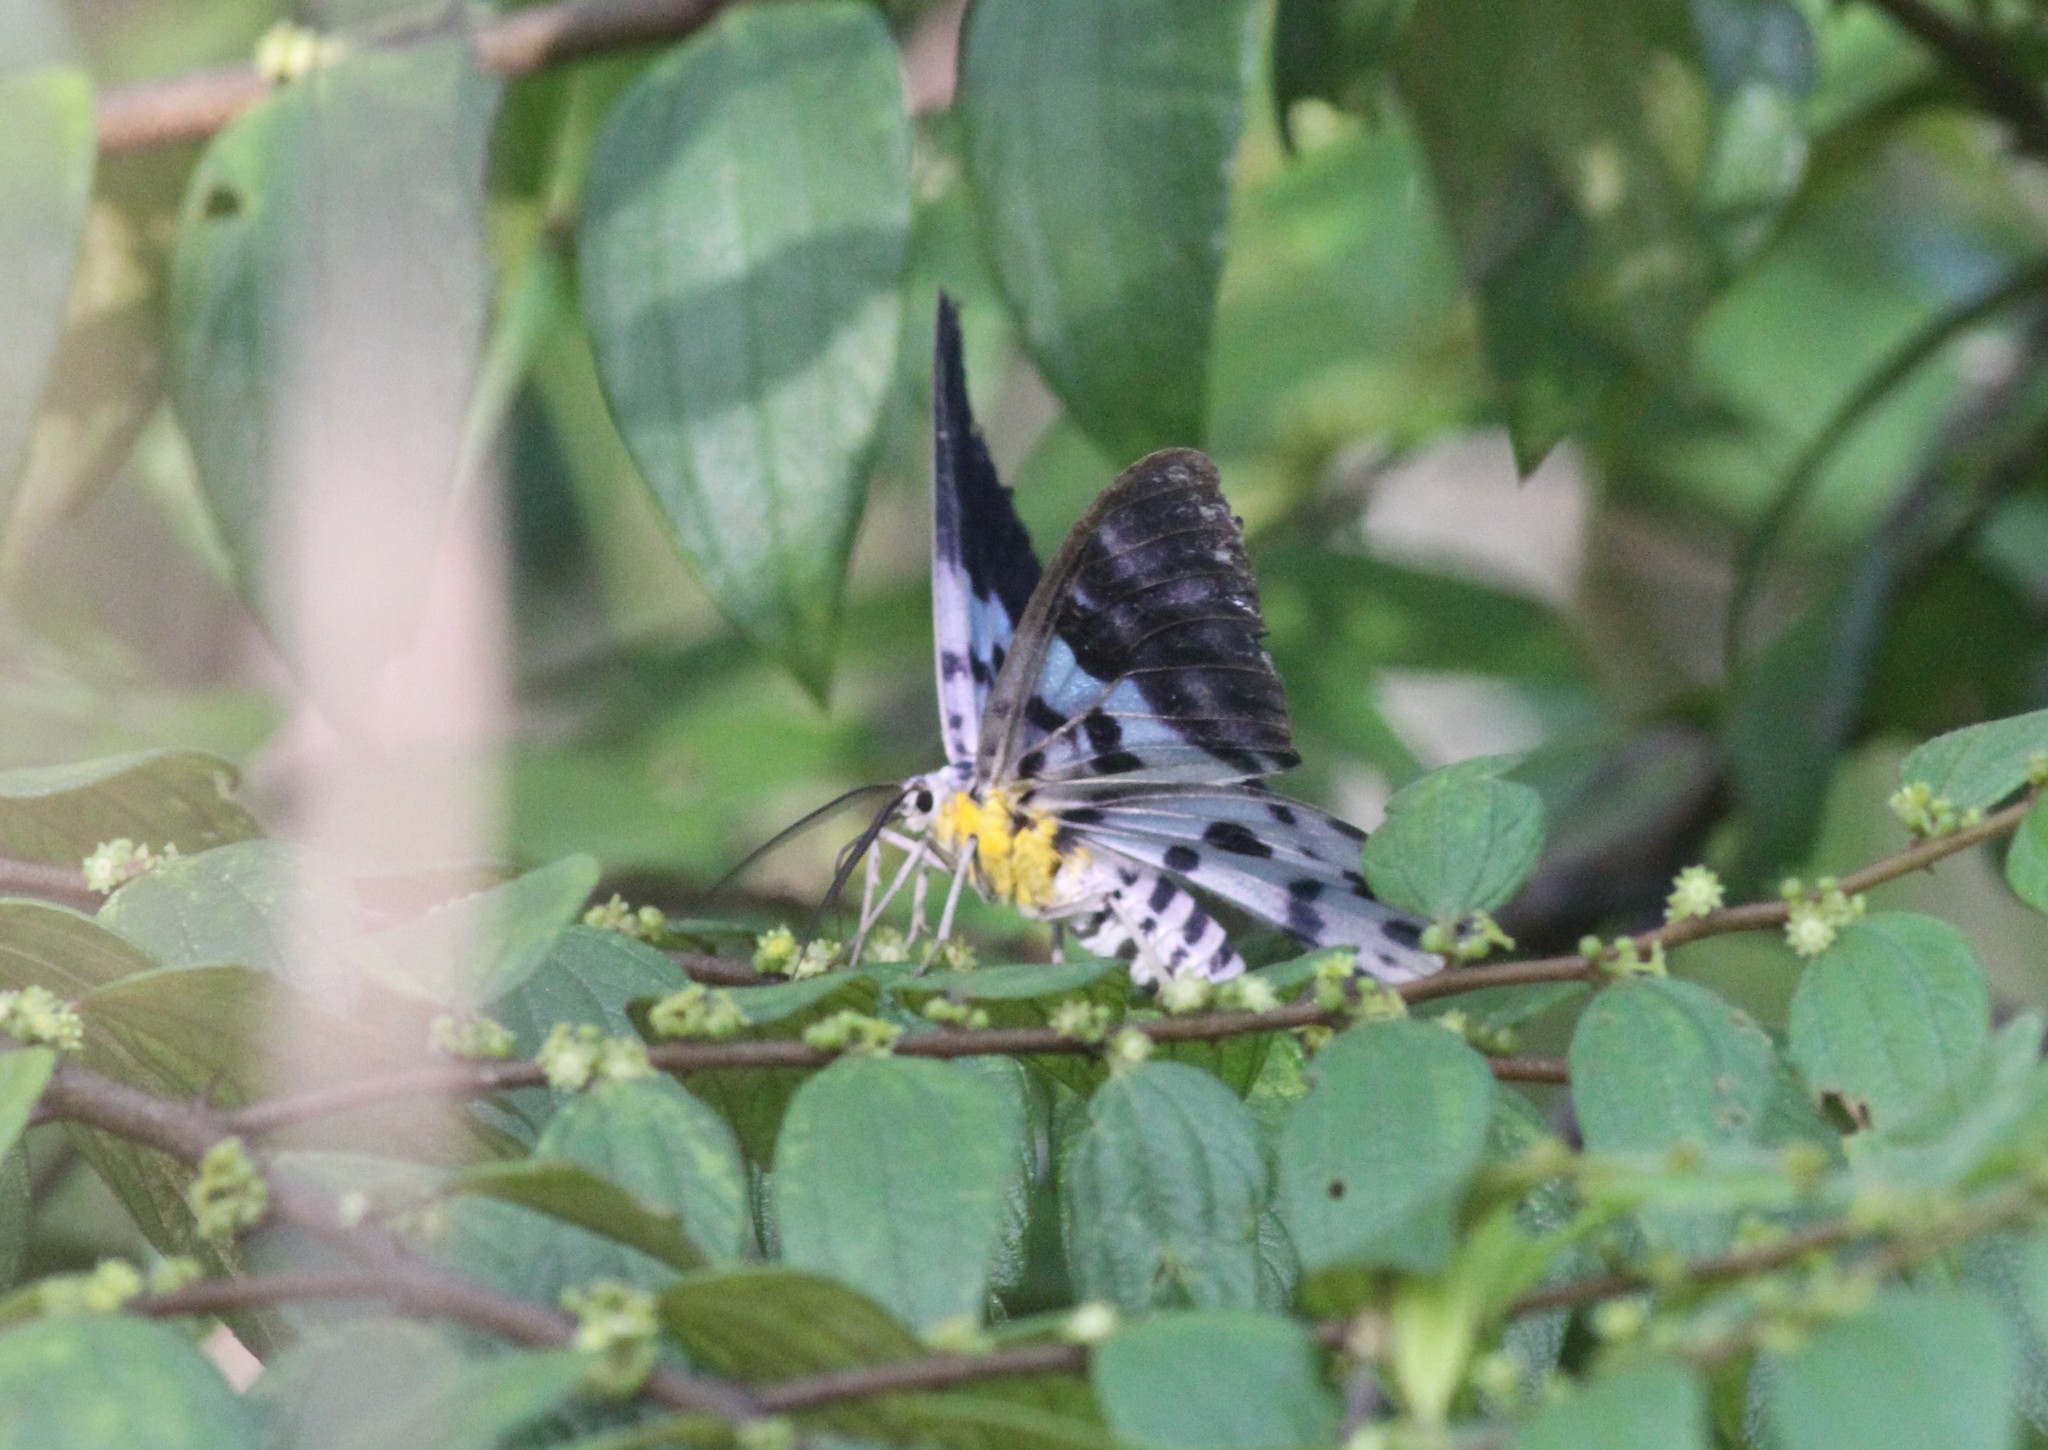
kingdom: Animalia
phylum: Arthropoda
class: Insecta
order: Lepidoptera
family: Geometridae
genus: Dysphania
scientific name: Dysphania percota
